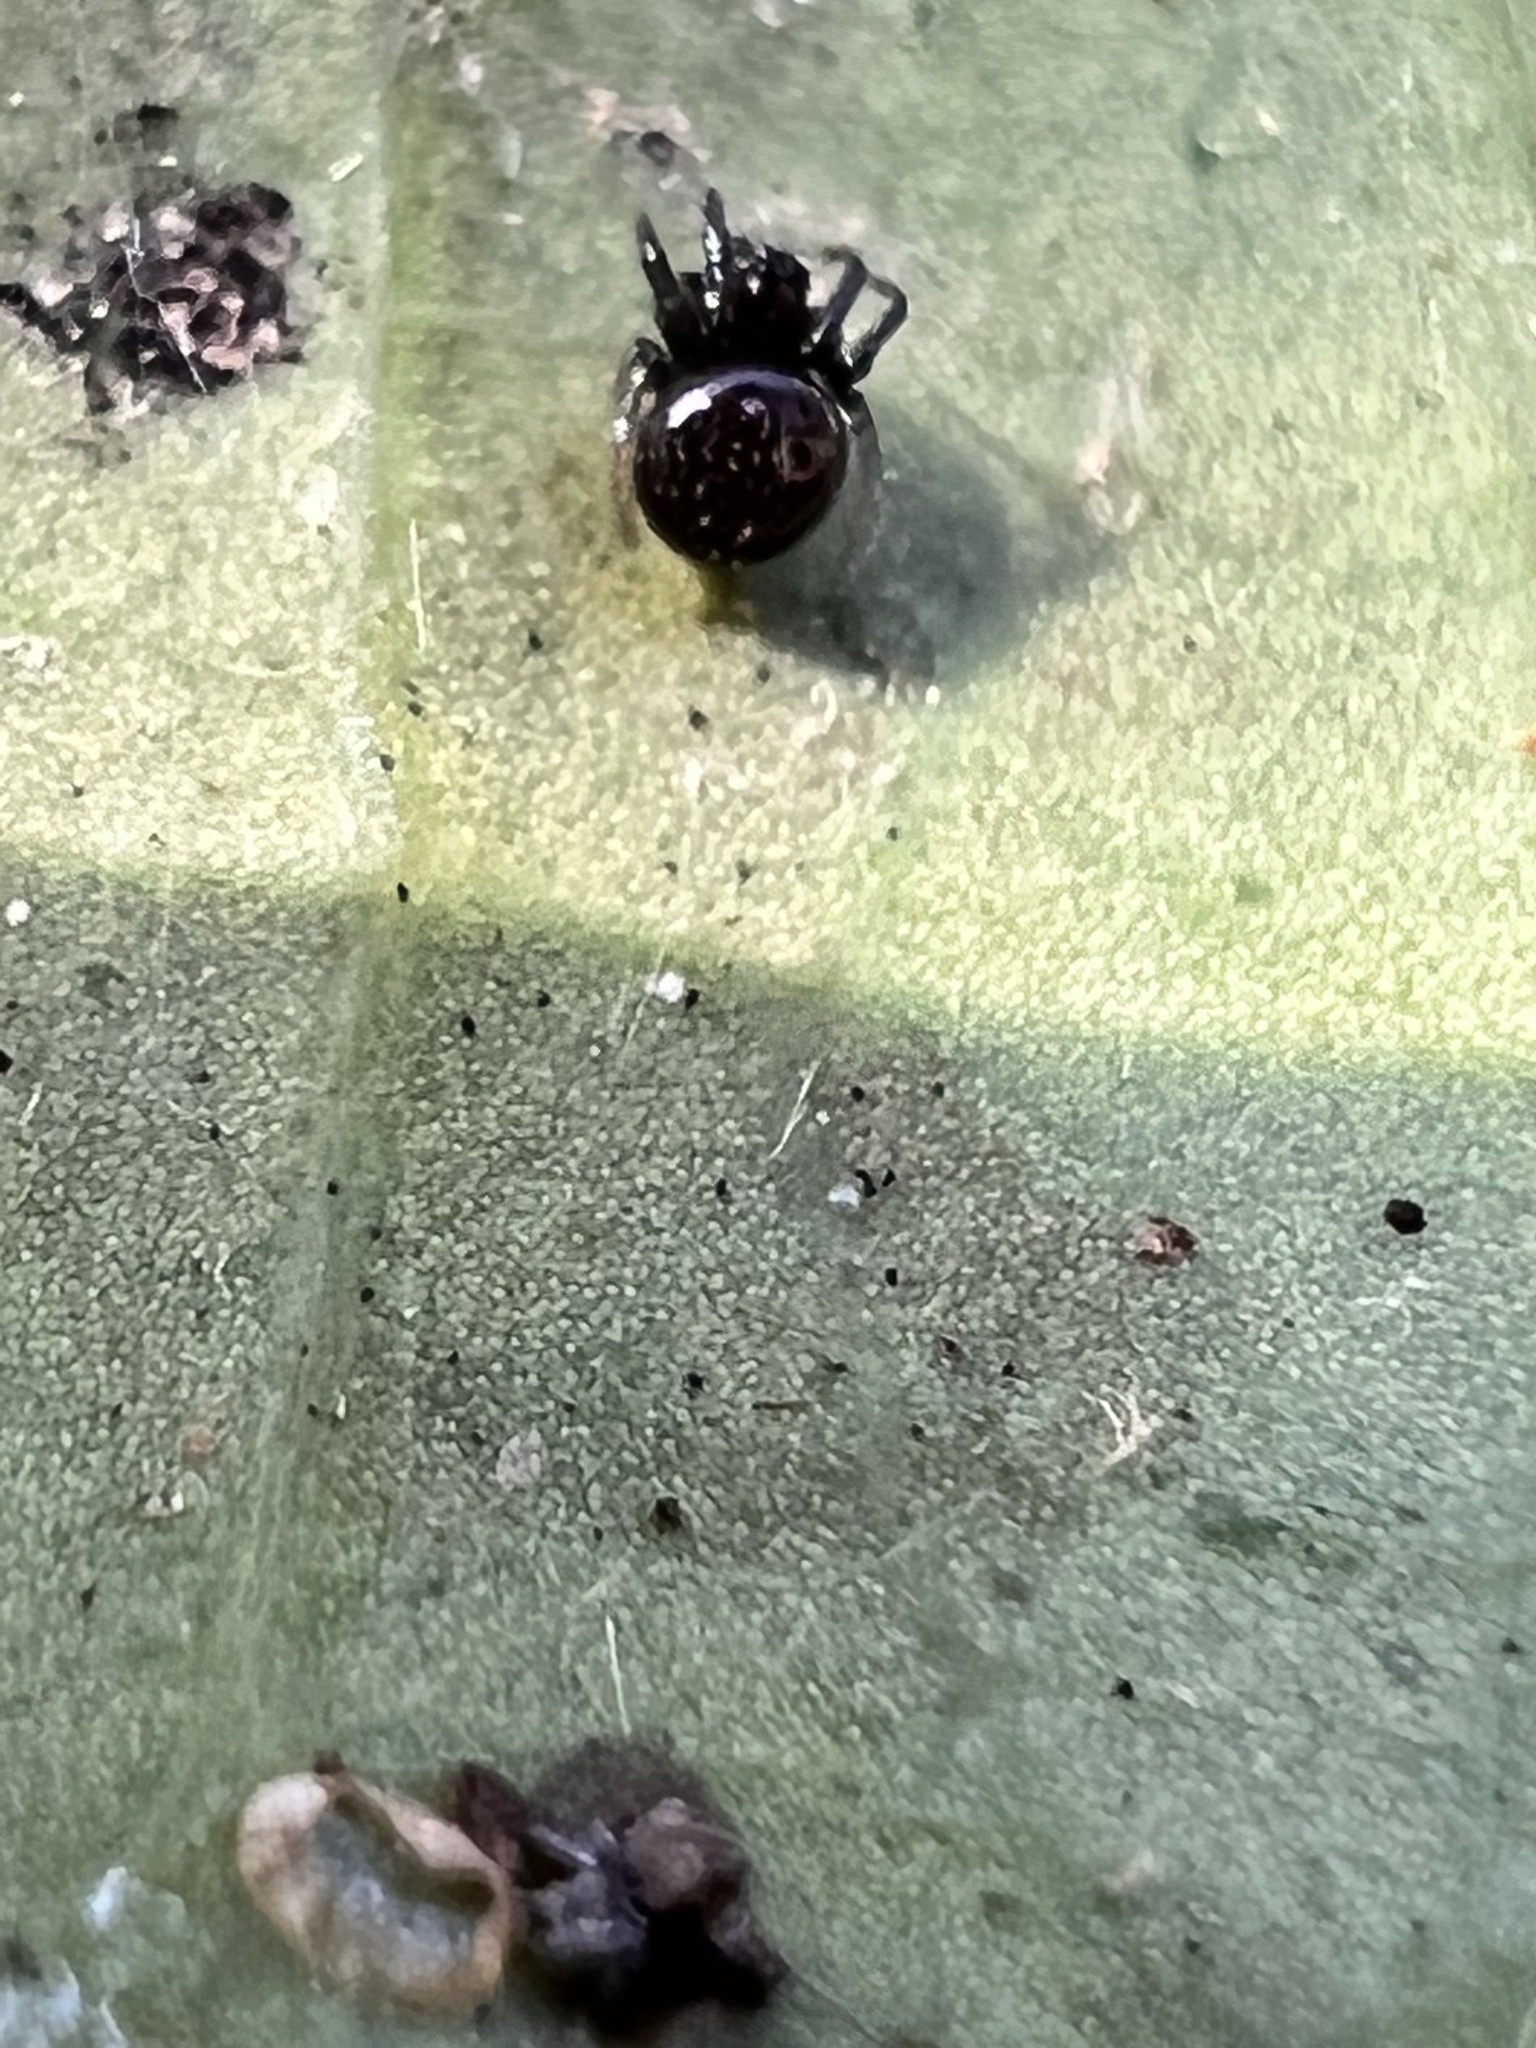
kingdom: Animalia
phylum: Arthropoda
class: Arachnida
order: Araneae
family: Theridiidae
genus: Steatoda
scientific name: Steatoda borealis
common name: Boreal combfoot
